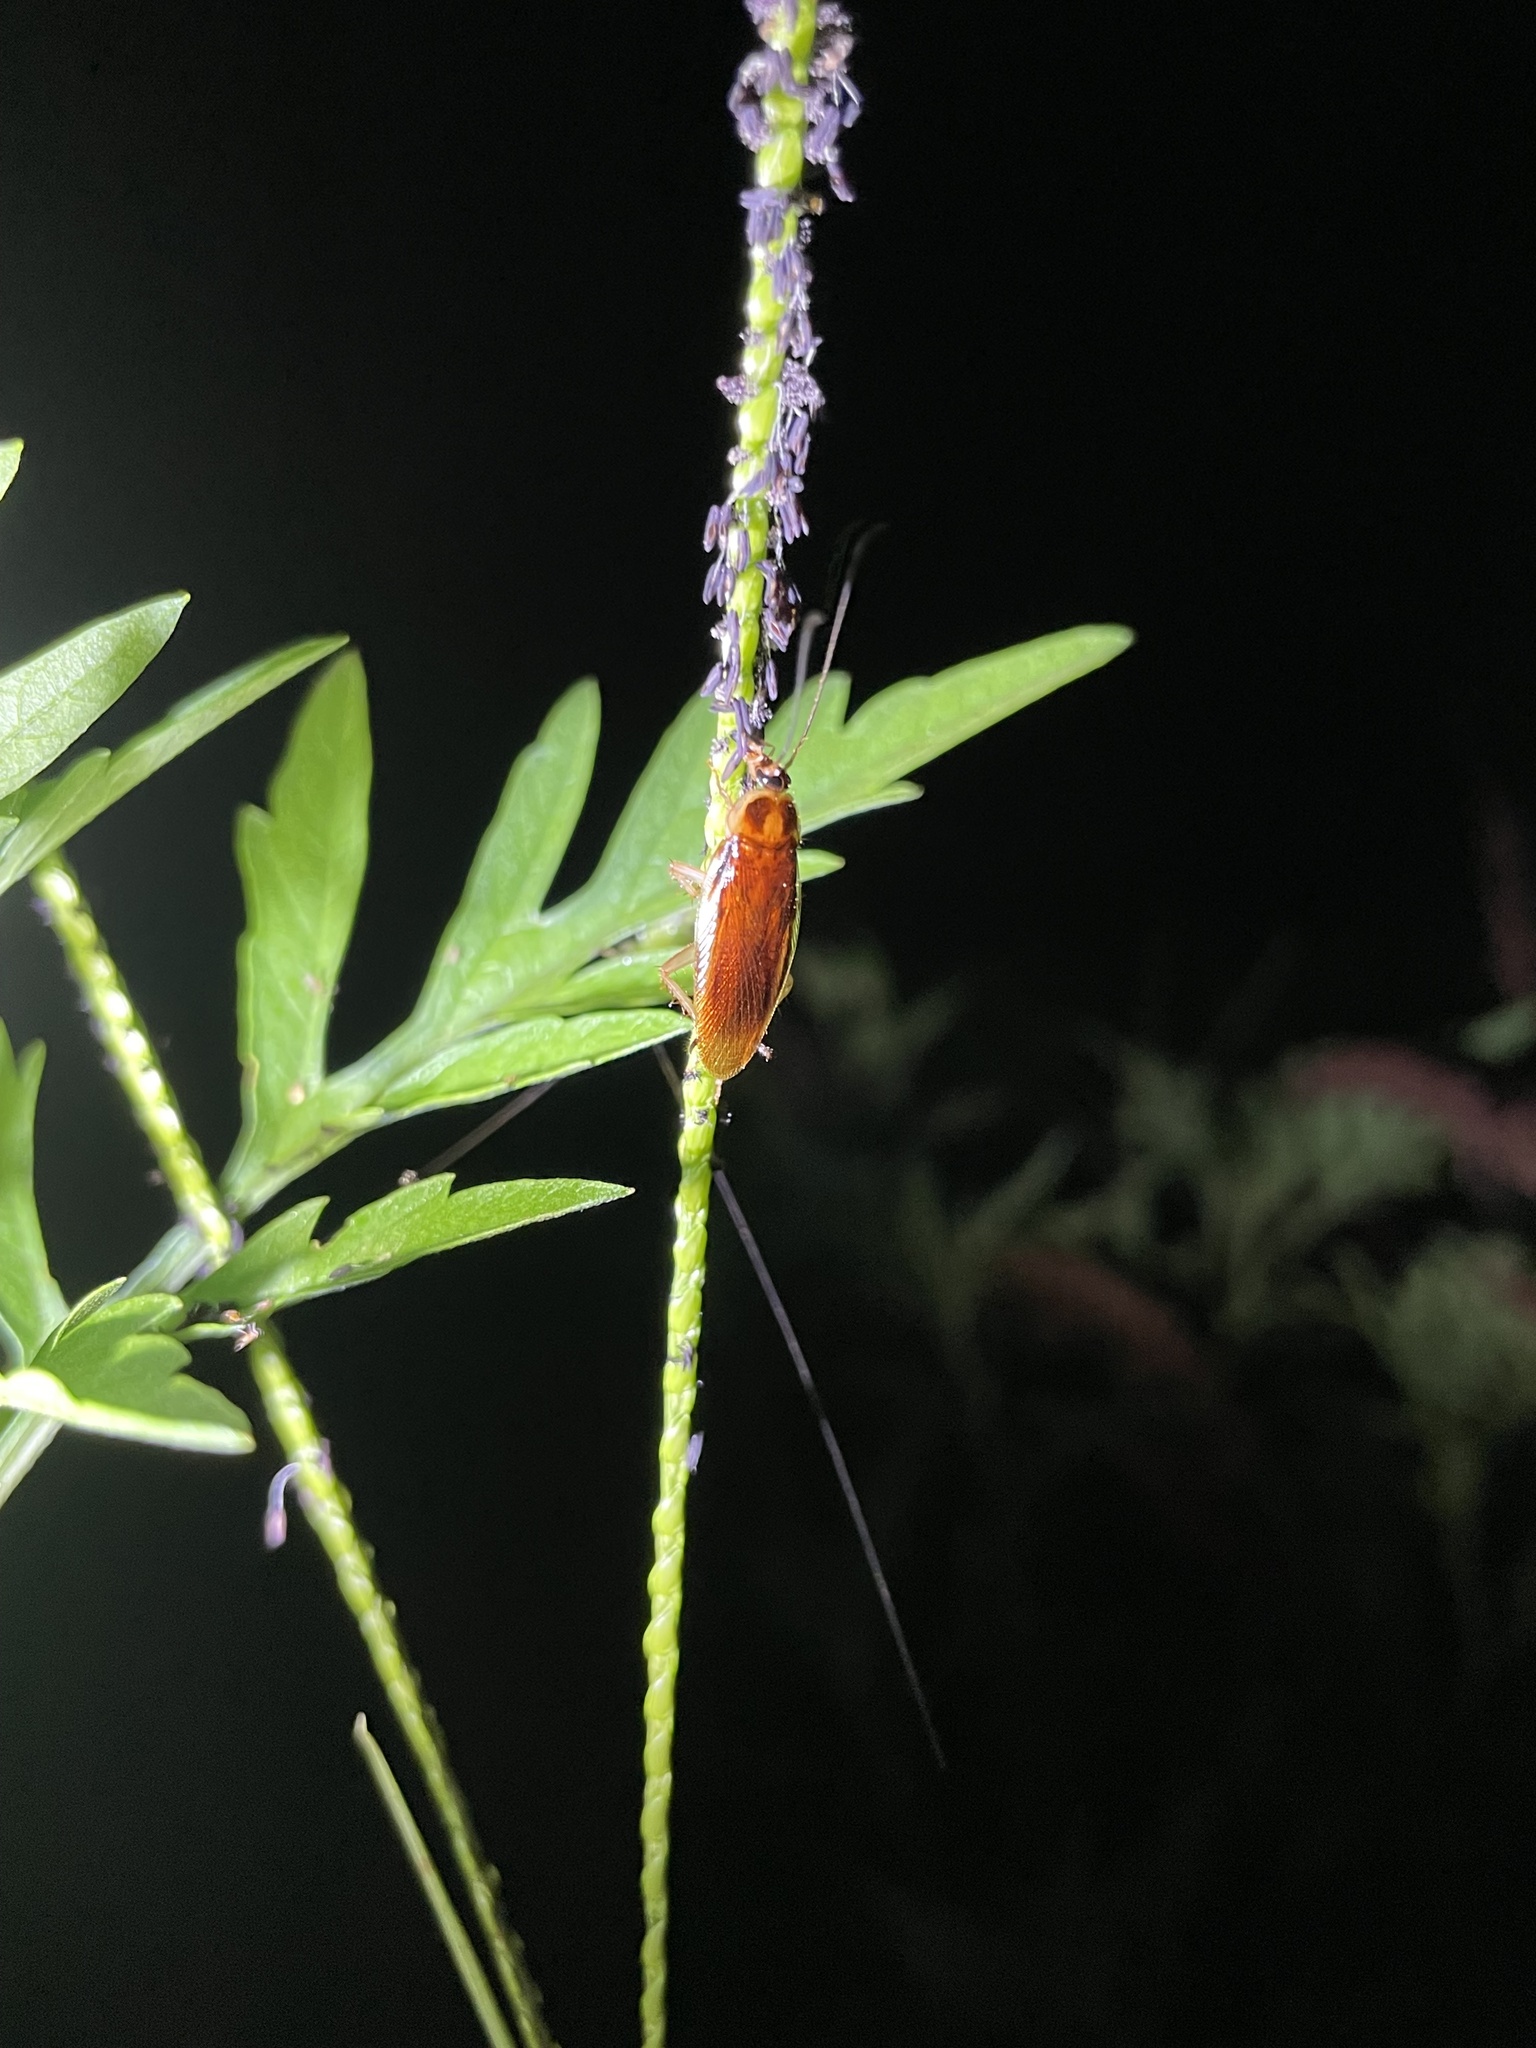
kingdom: Animalia
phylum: Arthropoda
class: Insecta
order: Blattodea
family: Ectobiidae
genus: Ischnoptera
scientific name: Ischnoptera bilunata
